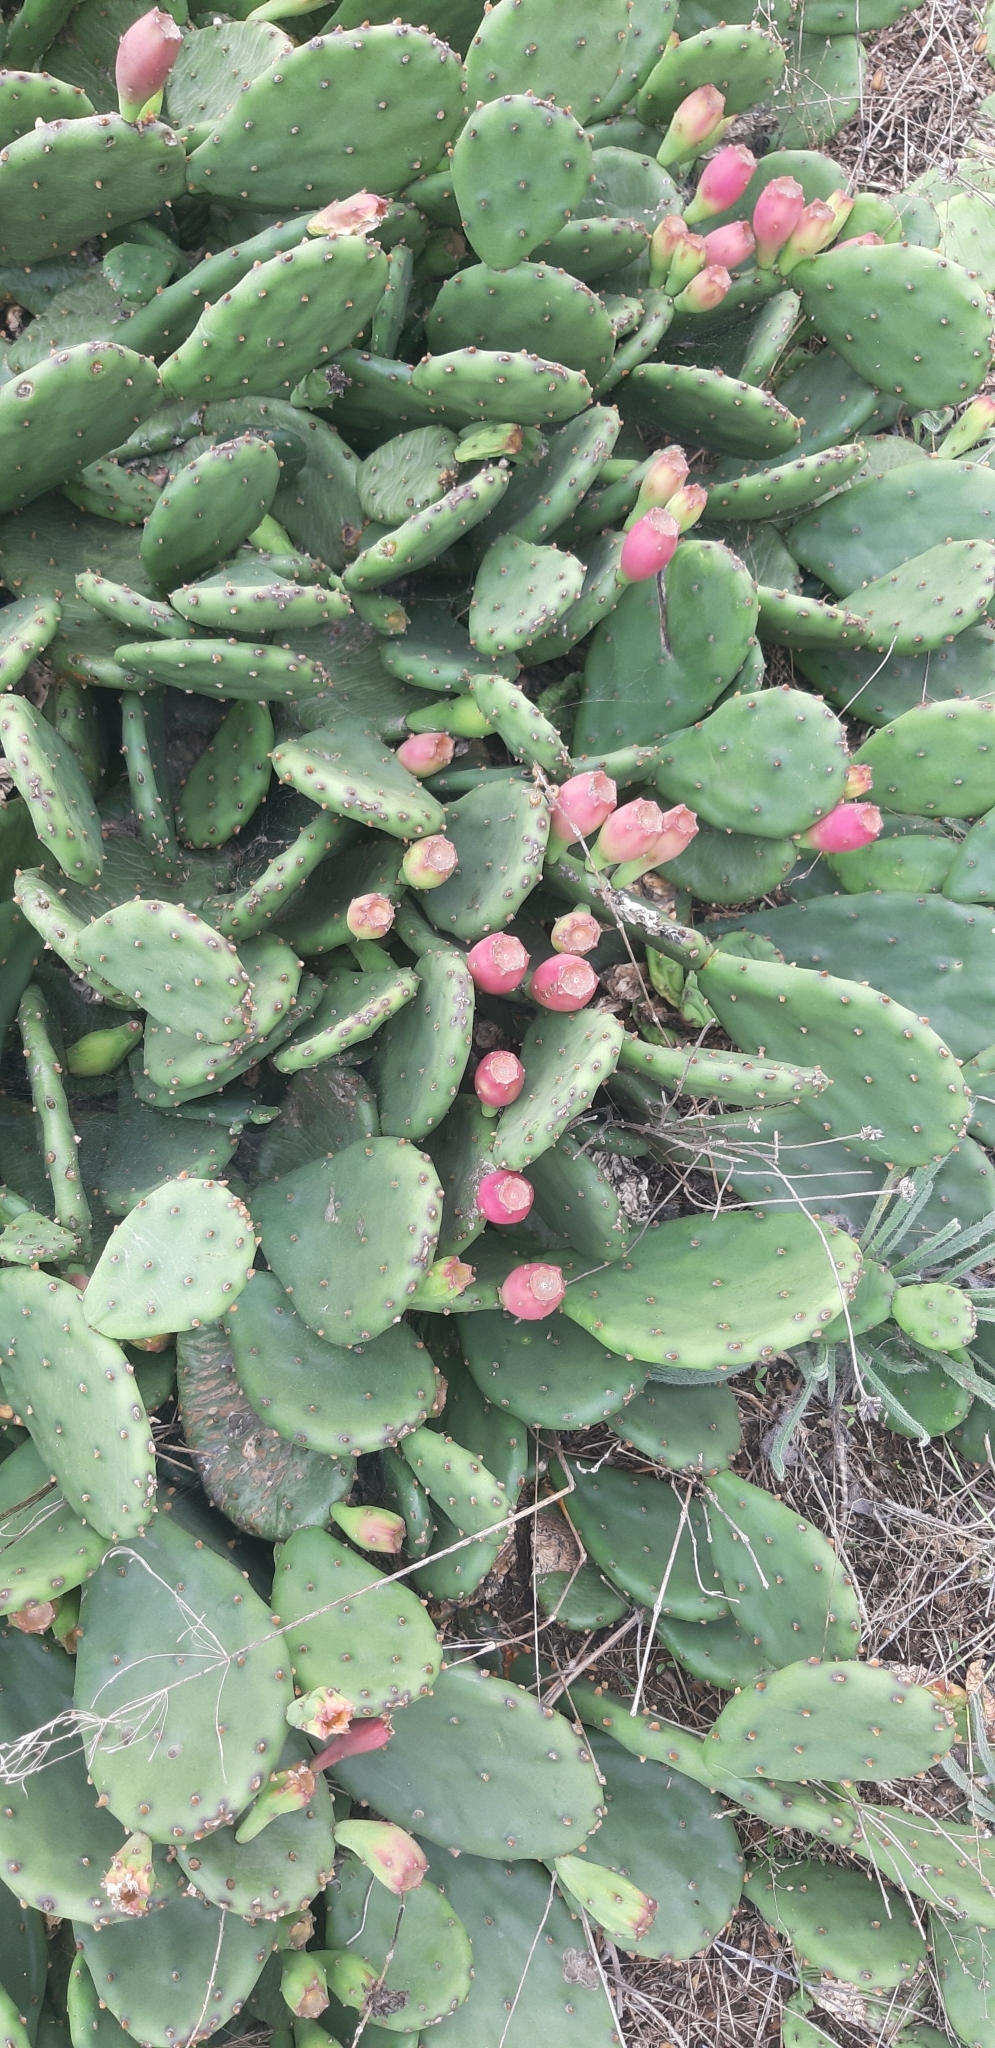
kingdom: Plantae
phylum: Tracheophyta
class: Magnoliopsida
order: Caryophyllales
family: Cactaceae
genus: Opuntia
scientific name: Opuntia humifusa
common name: Eastern prickly-pear
